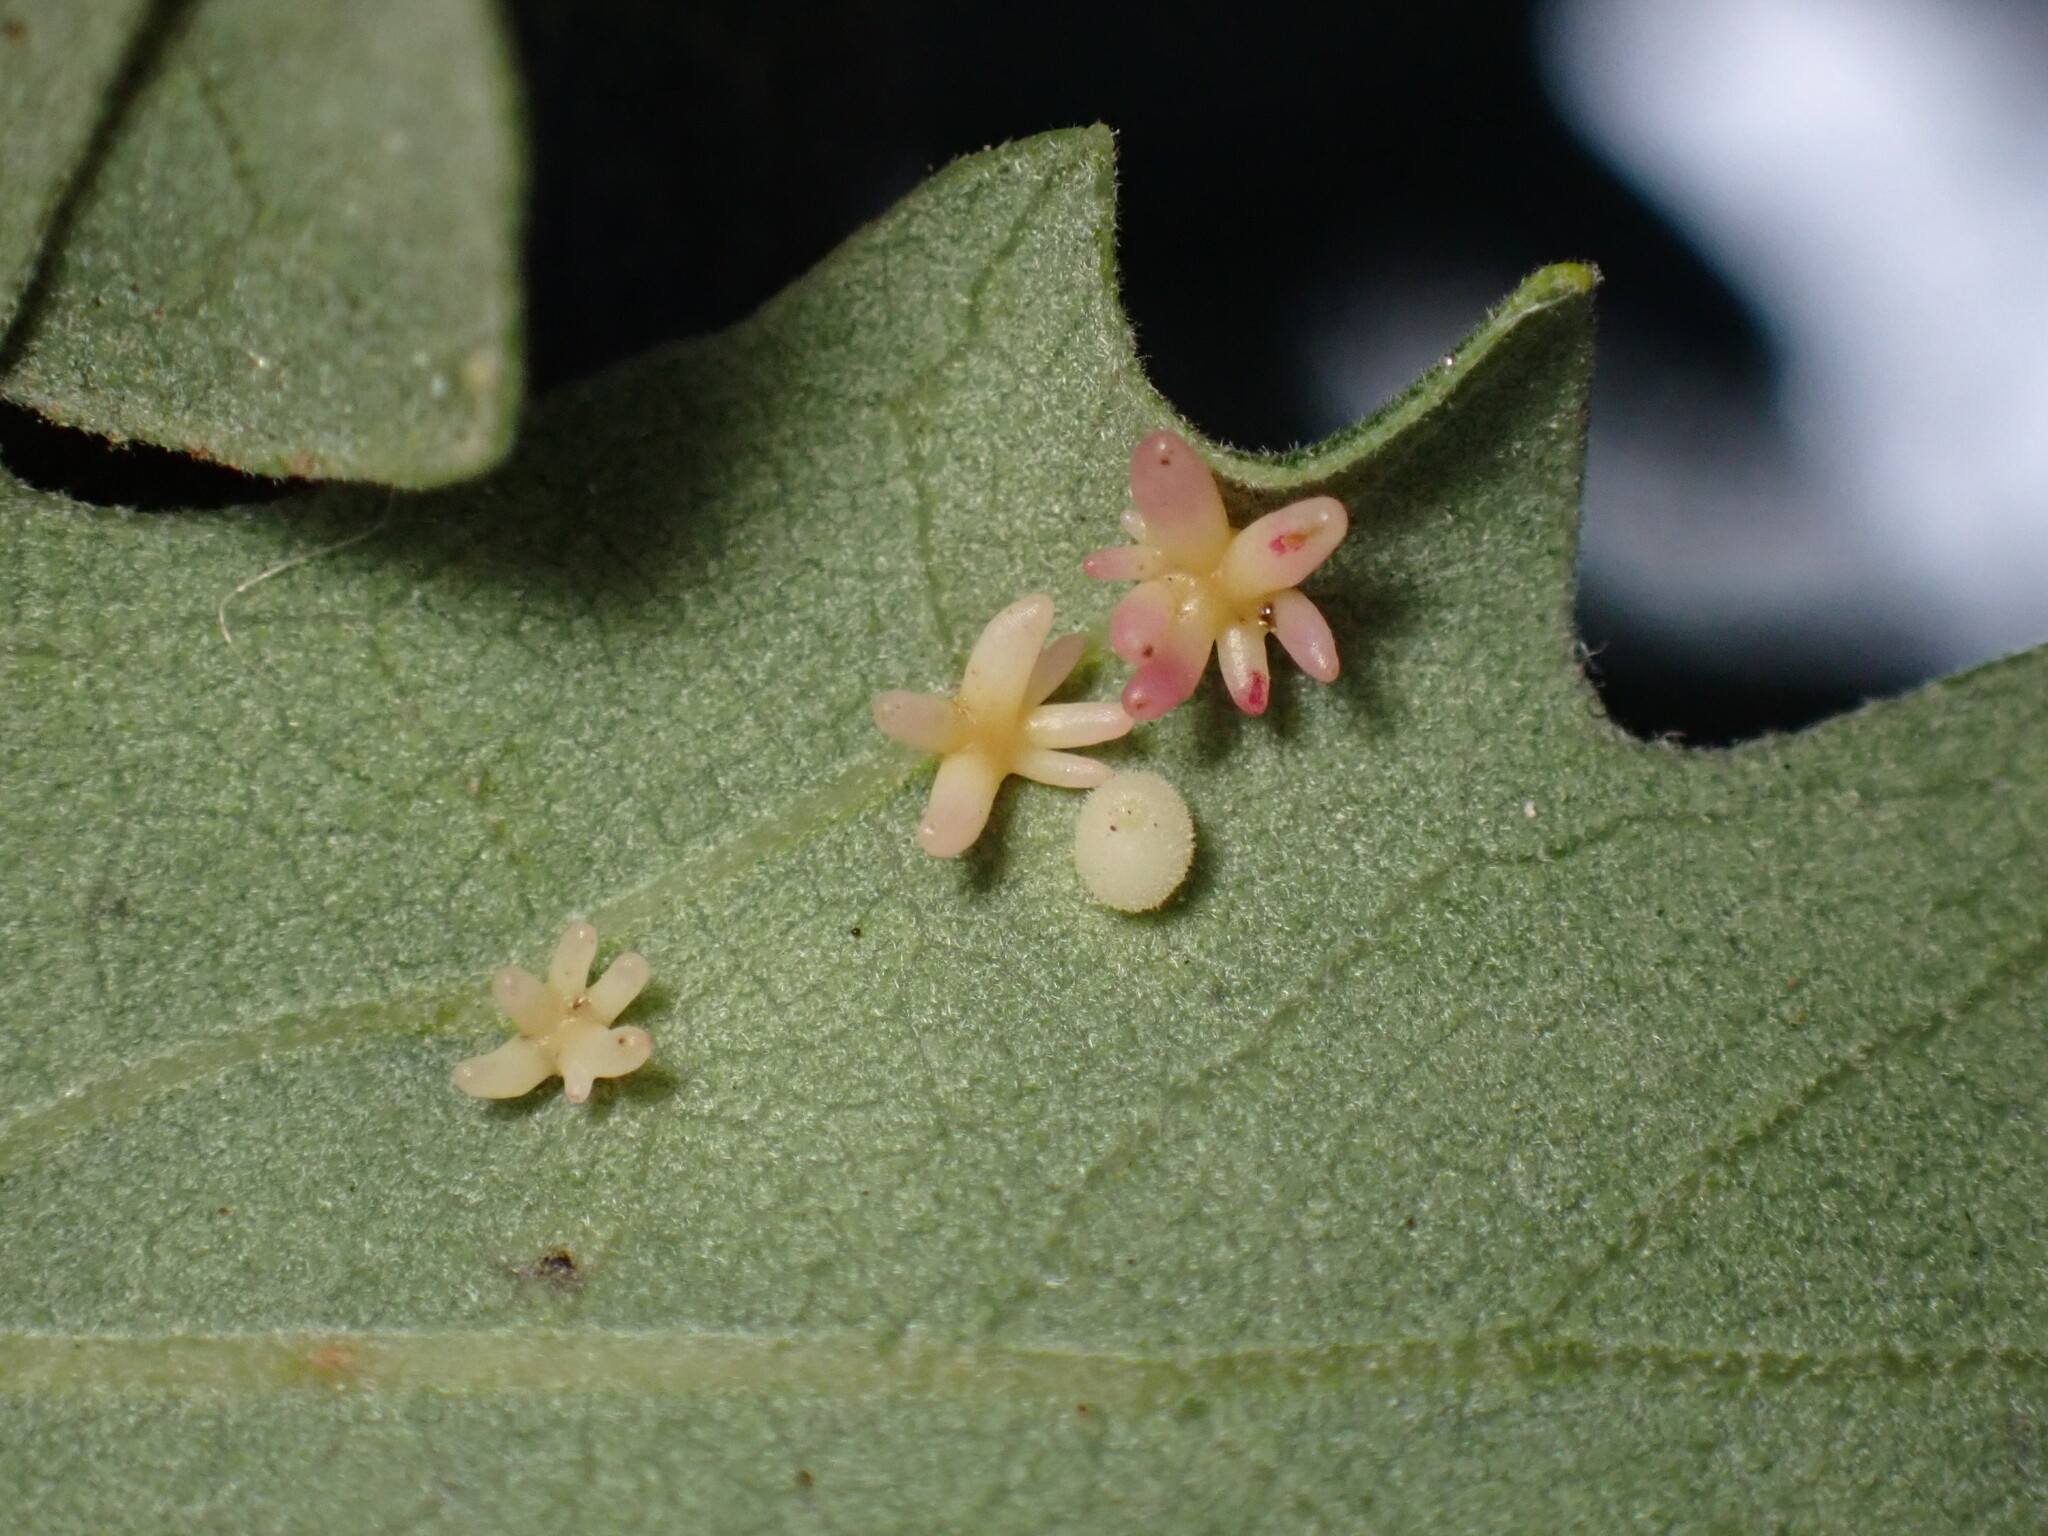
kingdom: Animalia
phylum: Arthropoda
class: Insecta
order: Hymenoptera
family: Cynipidae
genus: Cynips
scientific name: Cynips douglasi
